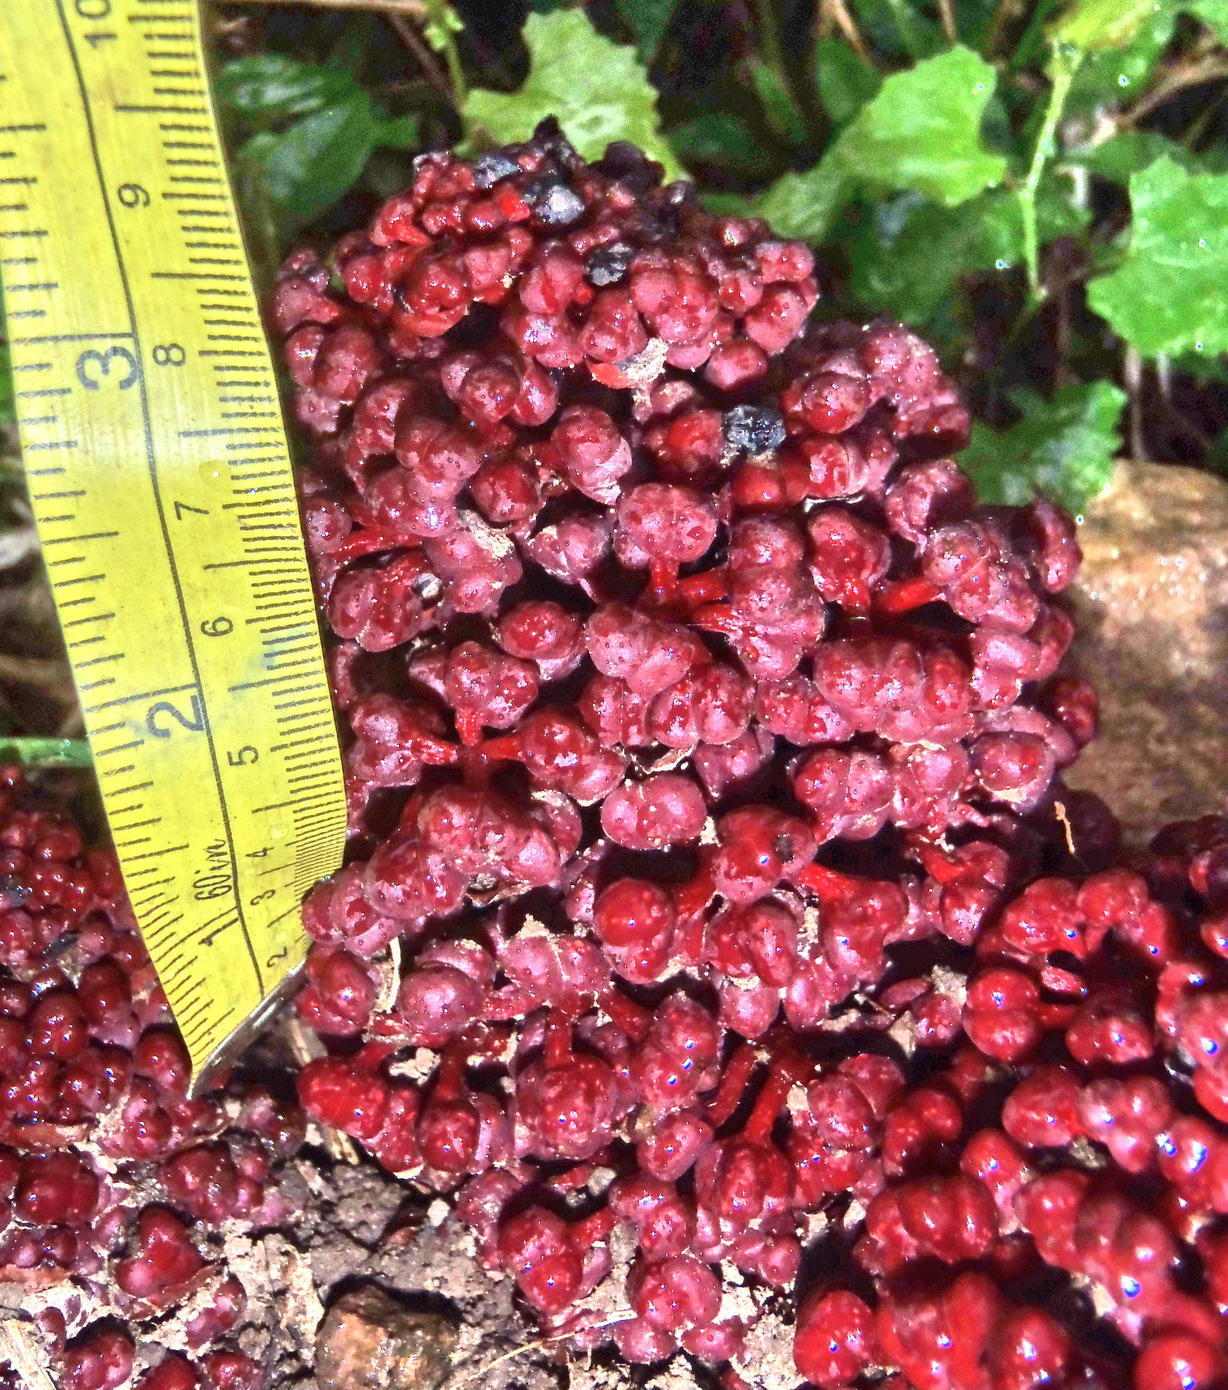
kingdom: Plantae
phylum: Tracheophyta
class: Magnoliopsida
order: Santalales
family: Balanophoraceae
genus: Sarcophyte
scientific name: Sarcophyte sanguinea
